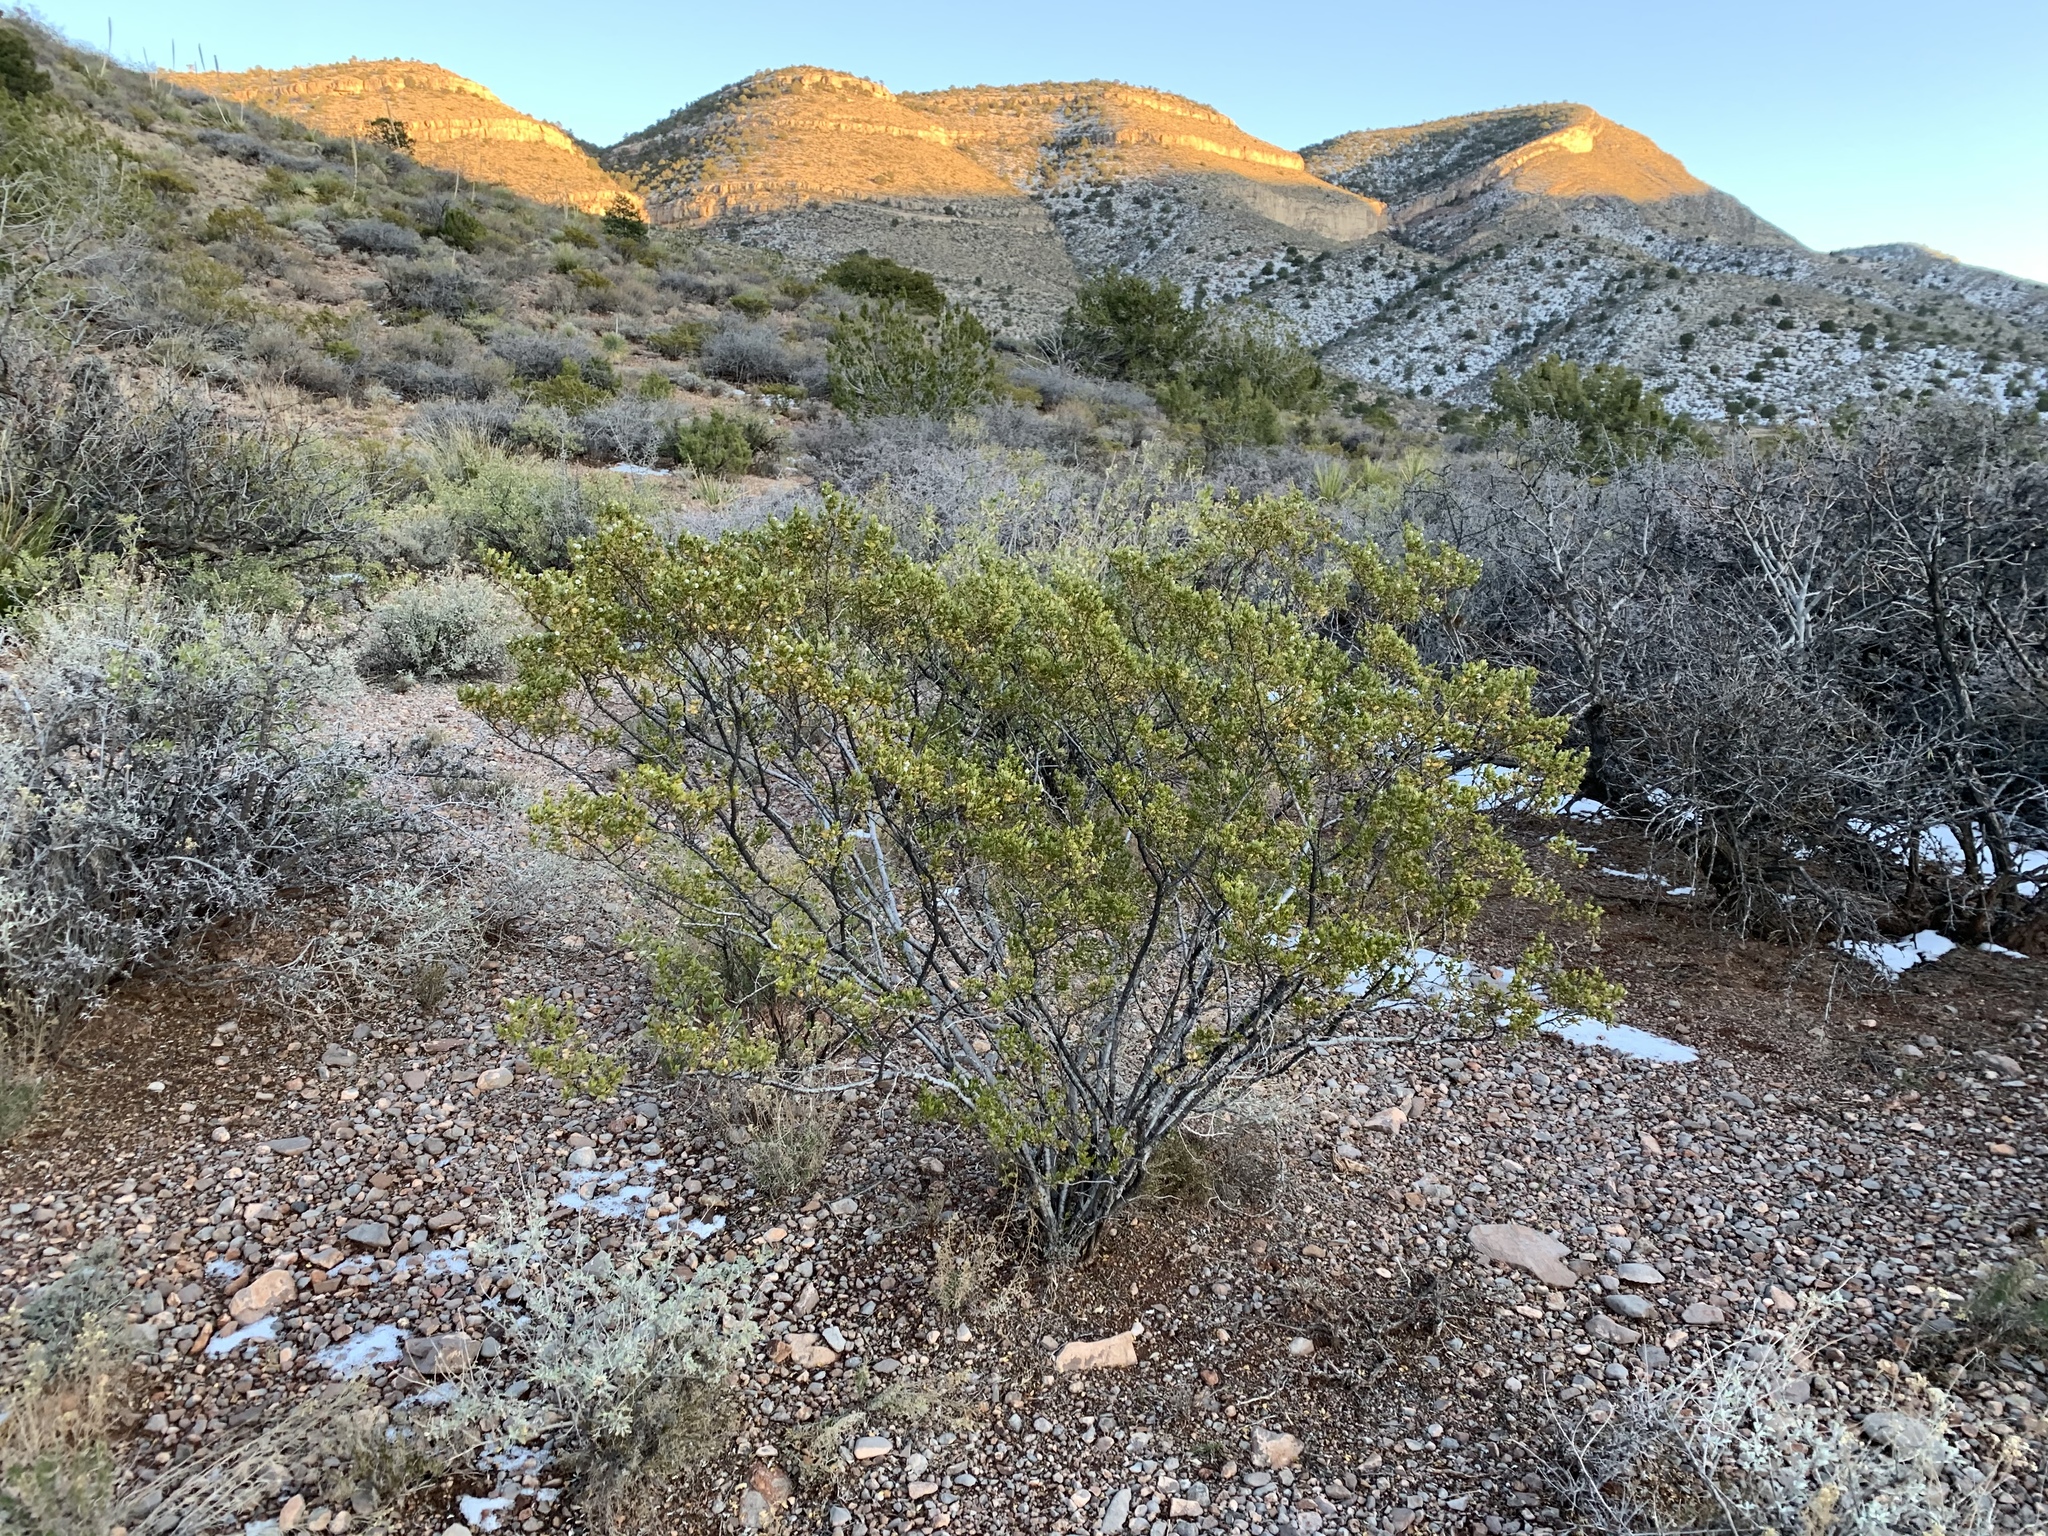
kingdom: Plantae
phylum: Tracheophyta
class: Magnoliopsida
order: Zygophyllales
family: Zygophyllaceae
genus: Larrea
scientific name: Larrea tridentata
